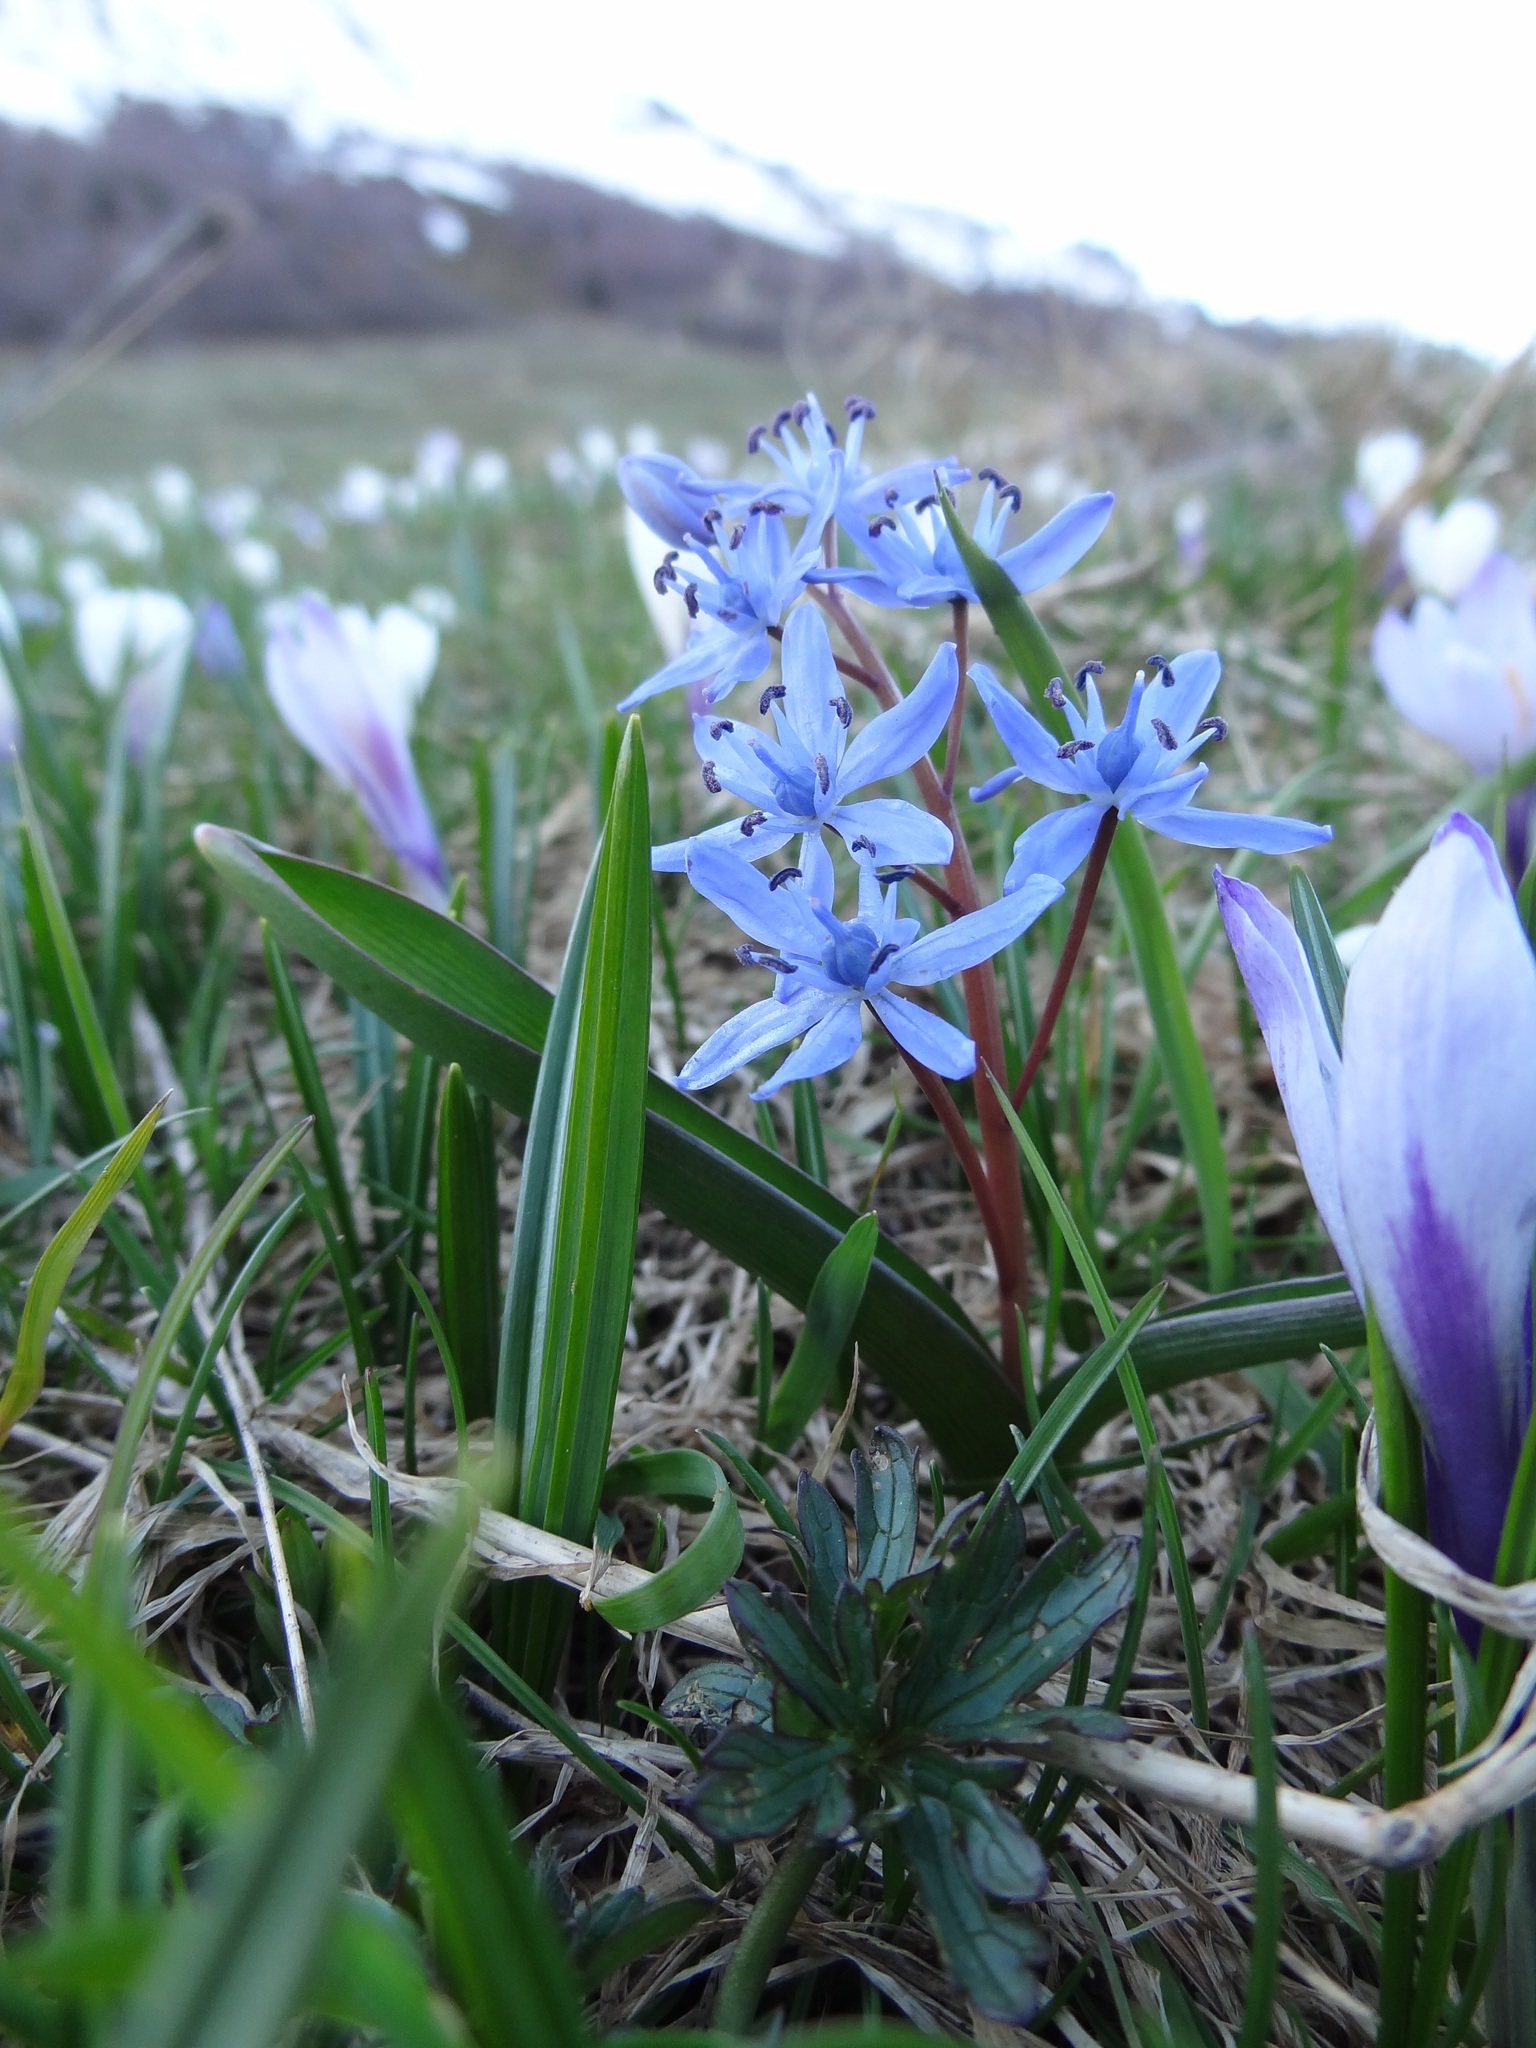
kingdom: Plantae
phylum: Tracheophyta
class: Liliopsida
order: Asparagales
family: Asparagaceae
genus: Scilla
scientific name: Scilla bifolia
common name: Alpine squill
